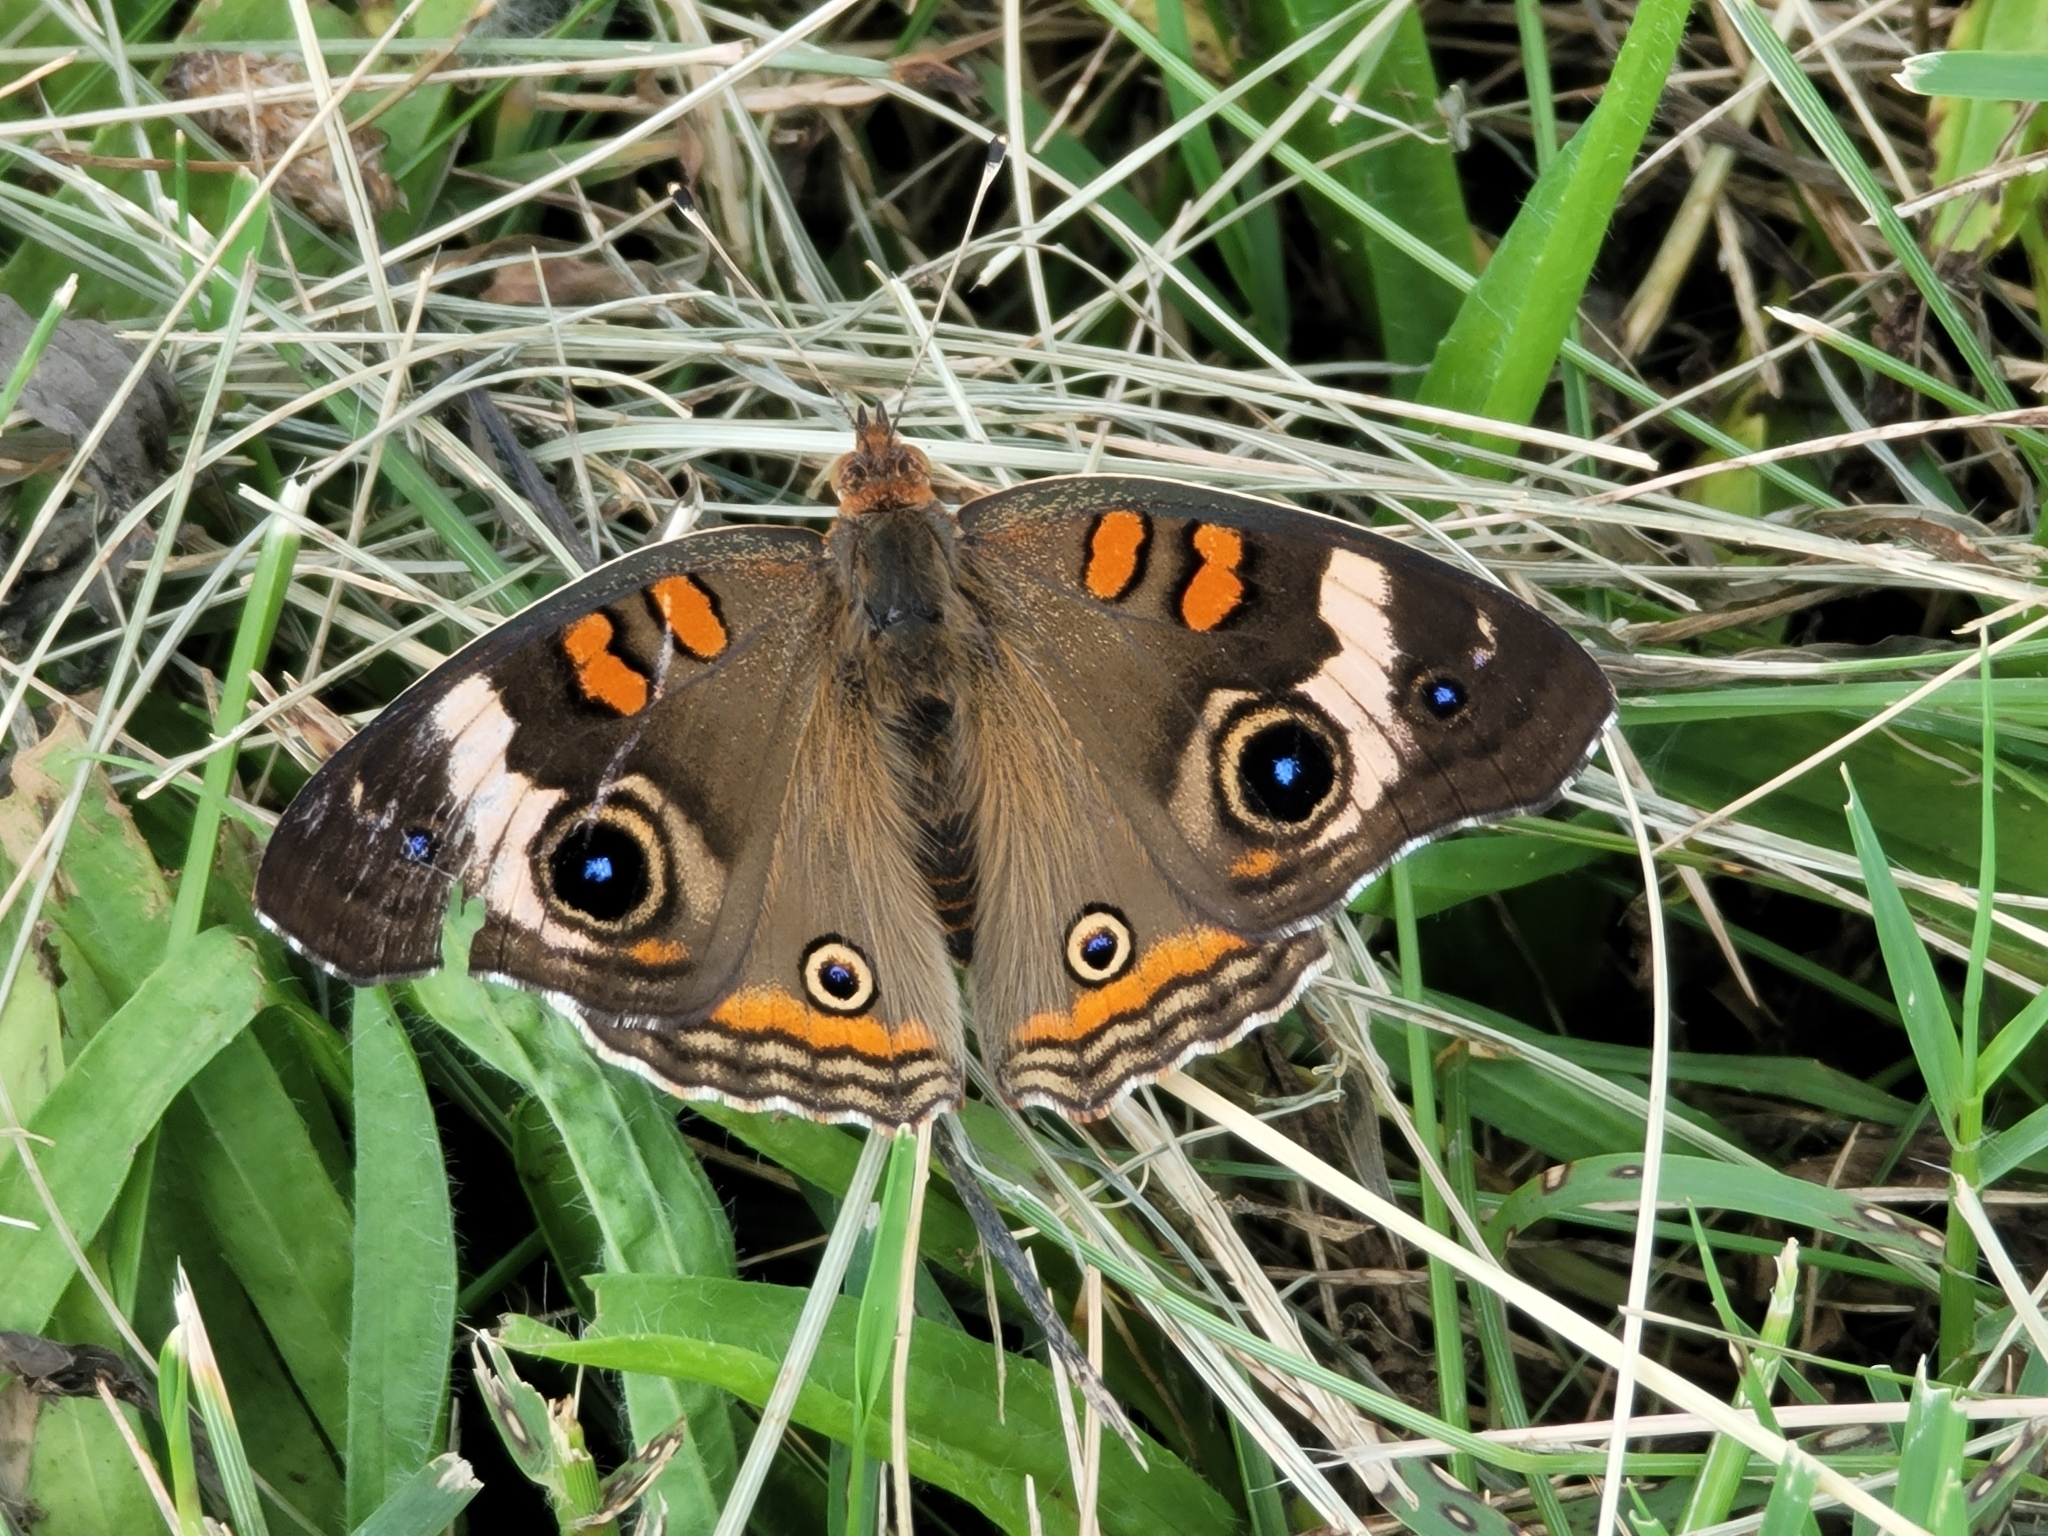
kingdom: Animalia
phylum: Arthropoda
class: Insecta
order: Lepidoptera
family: Nymphalidae
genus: Junonia
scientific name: Junonia coenia
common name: Common buckeye
